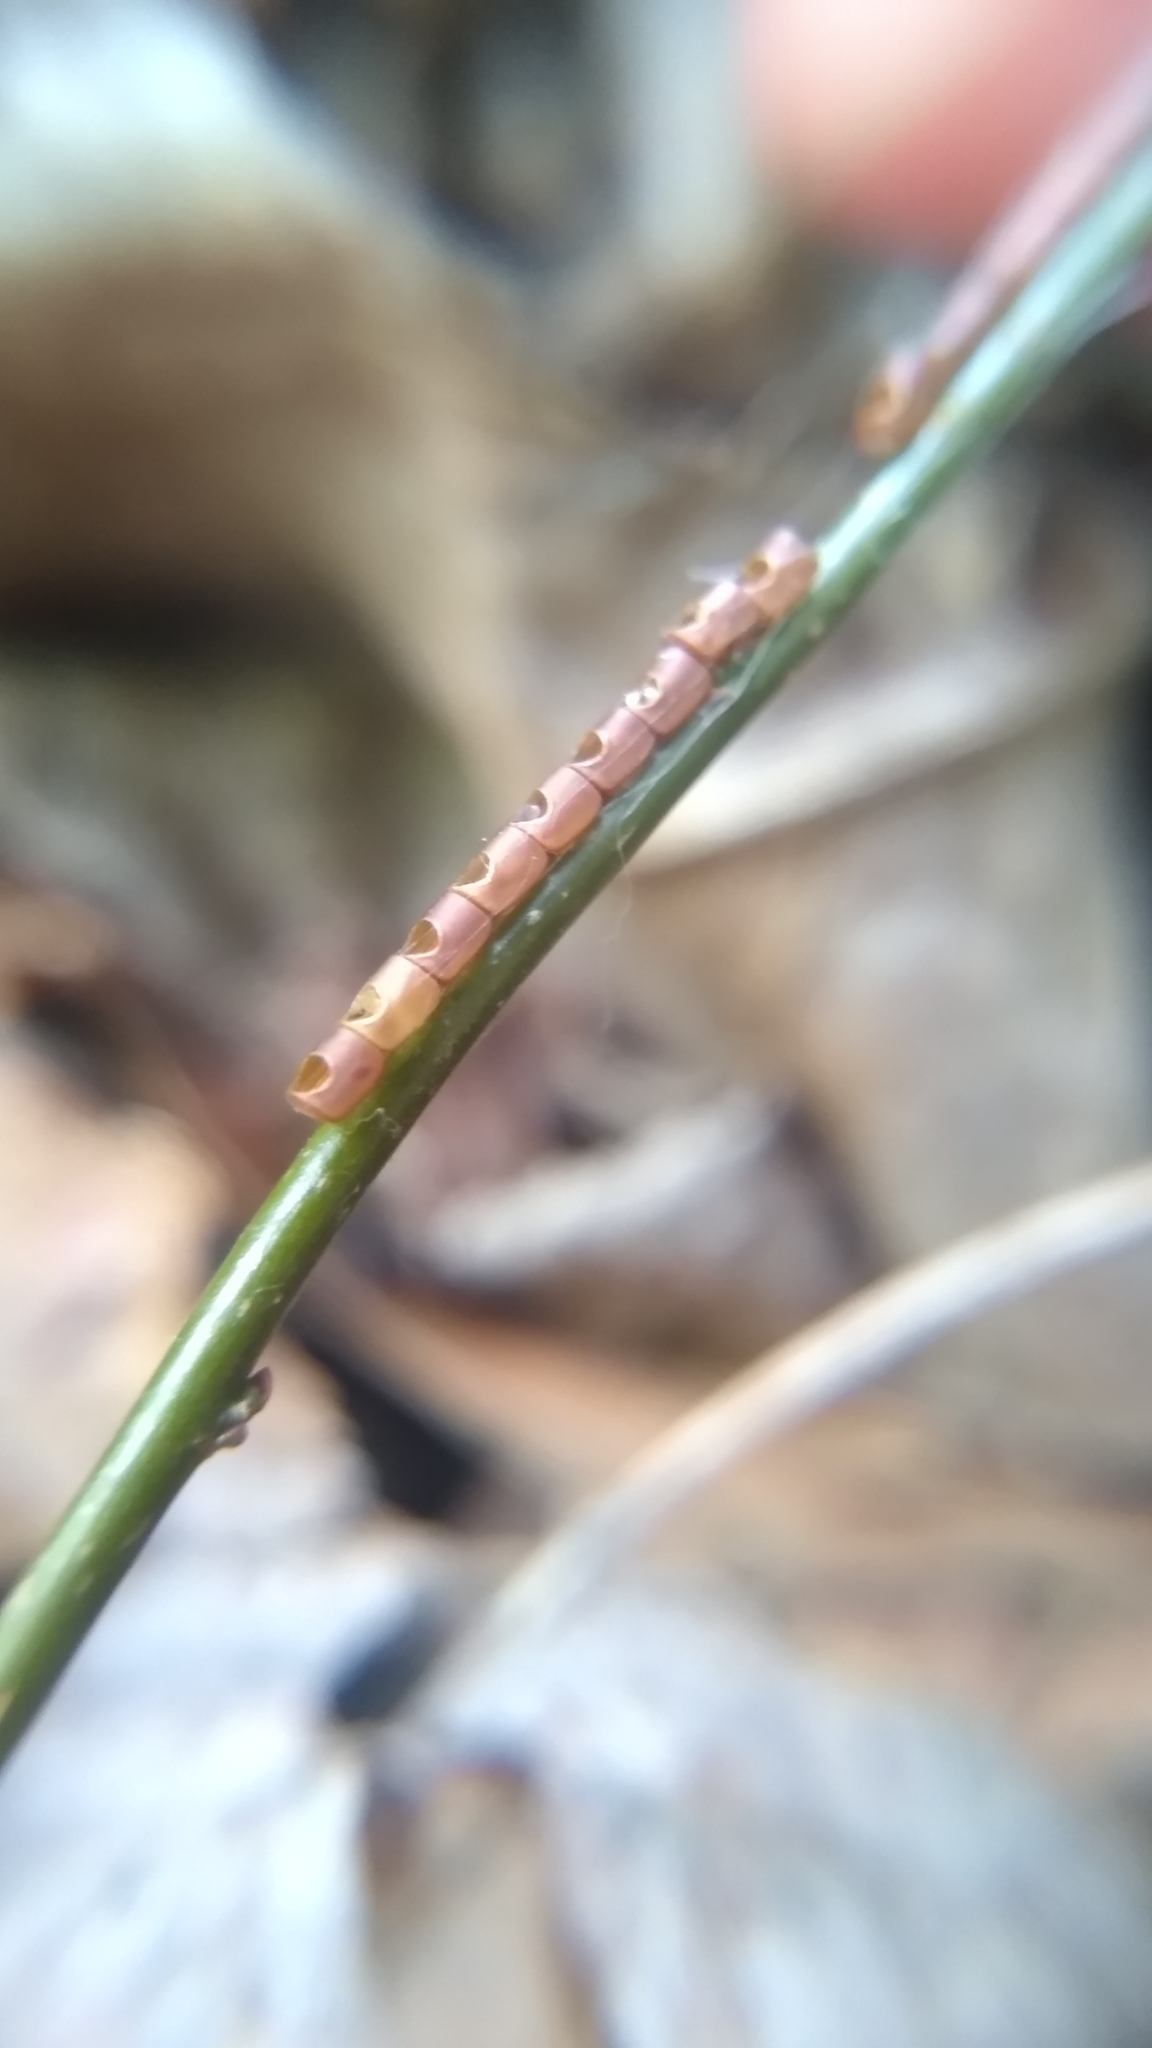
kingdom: Animalia
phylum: Arthropoda
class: Insecta
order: Hemiptera
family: Coreidae
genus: Leptoglossus
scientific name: Leptoglossus
